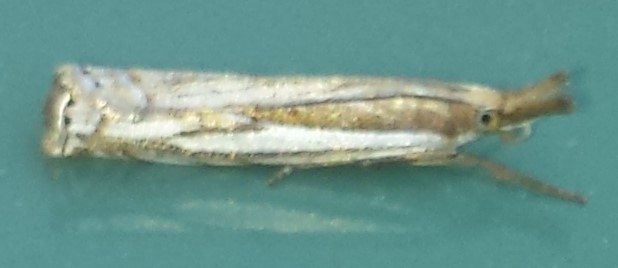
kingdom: Animalia
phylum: Arthropoda
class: Insecta
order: Lepidoptera
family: Crambidae
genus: Crambus
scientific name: Crambus saltuellus
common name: Pasture grass-veneer
